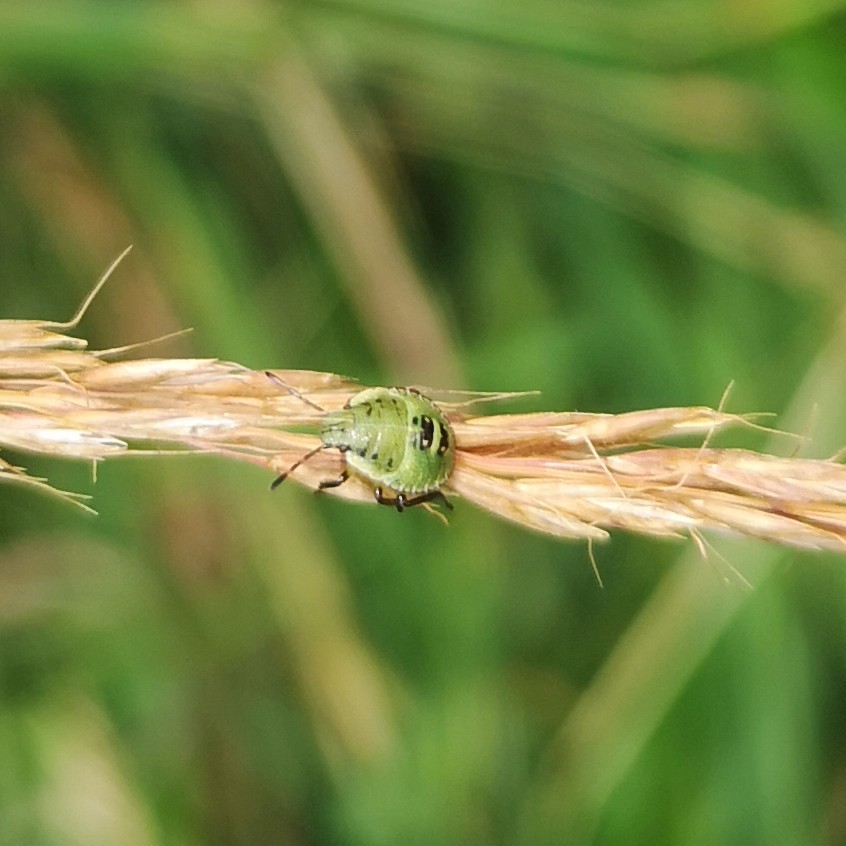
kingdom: Animalia
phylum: Arthropoda
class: Insecta
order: Hemiptera
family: Pentatomidae
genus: Palomena
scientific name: Palomena prasina
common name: Green shieldbug
